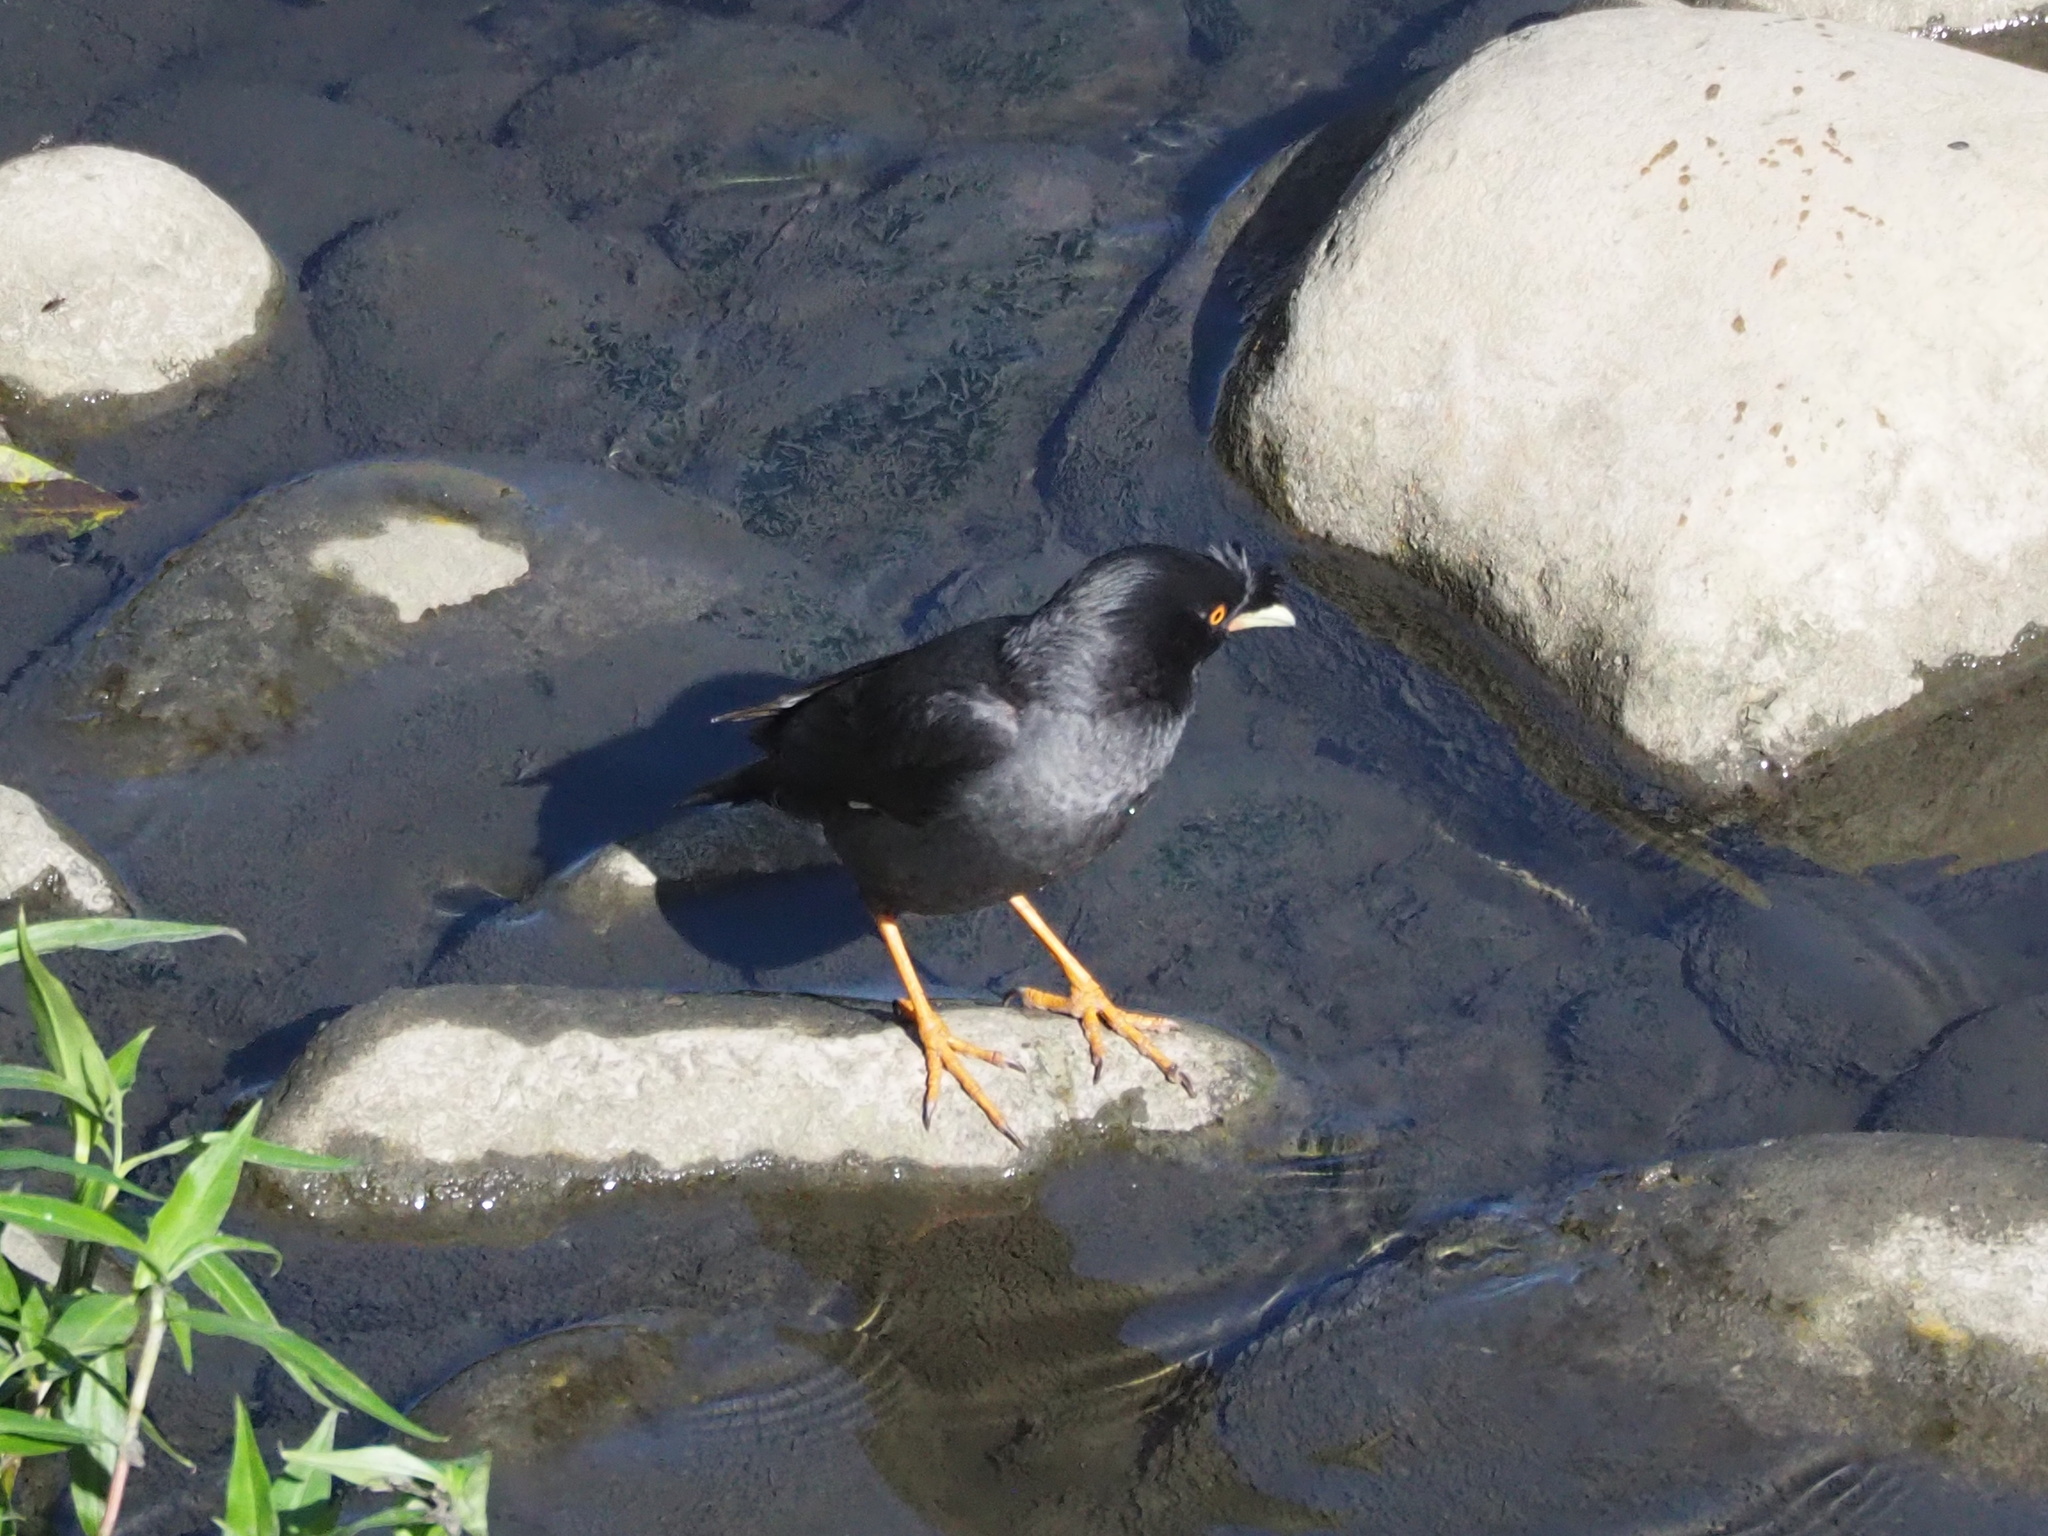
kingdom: Animalia
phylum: Chordata
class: Aves
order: Passeriformes
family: Sturnidae
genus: Acridotheres
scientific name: Acridotheres cristatellus
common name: Crested myna
